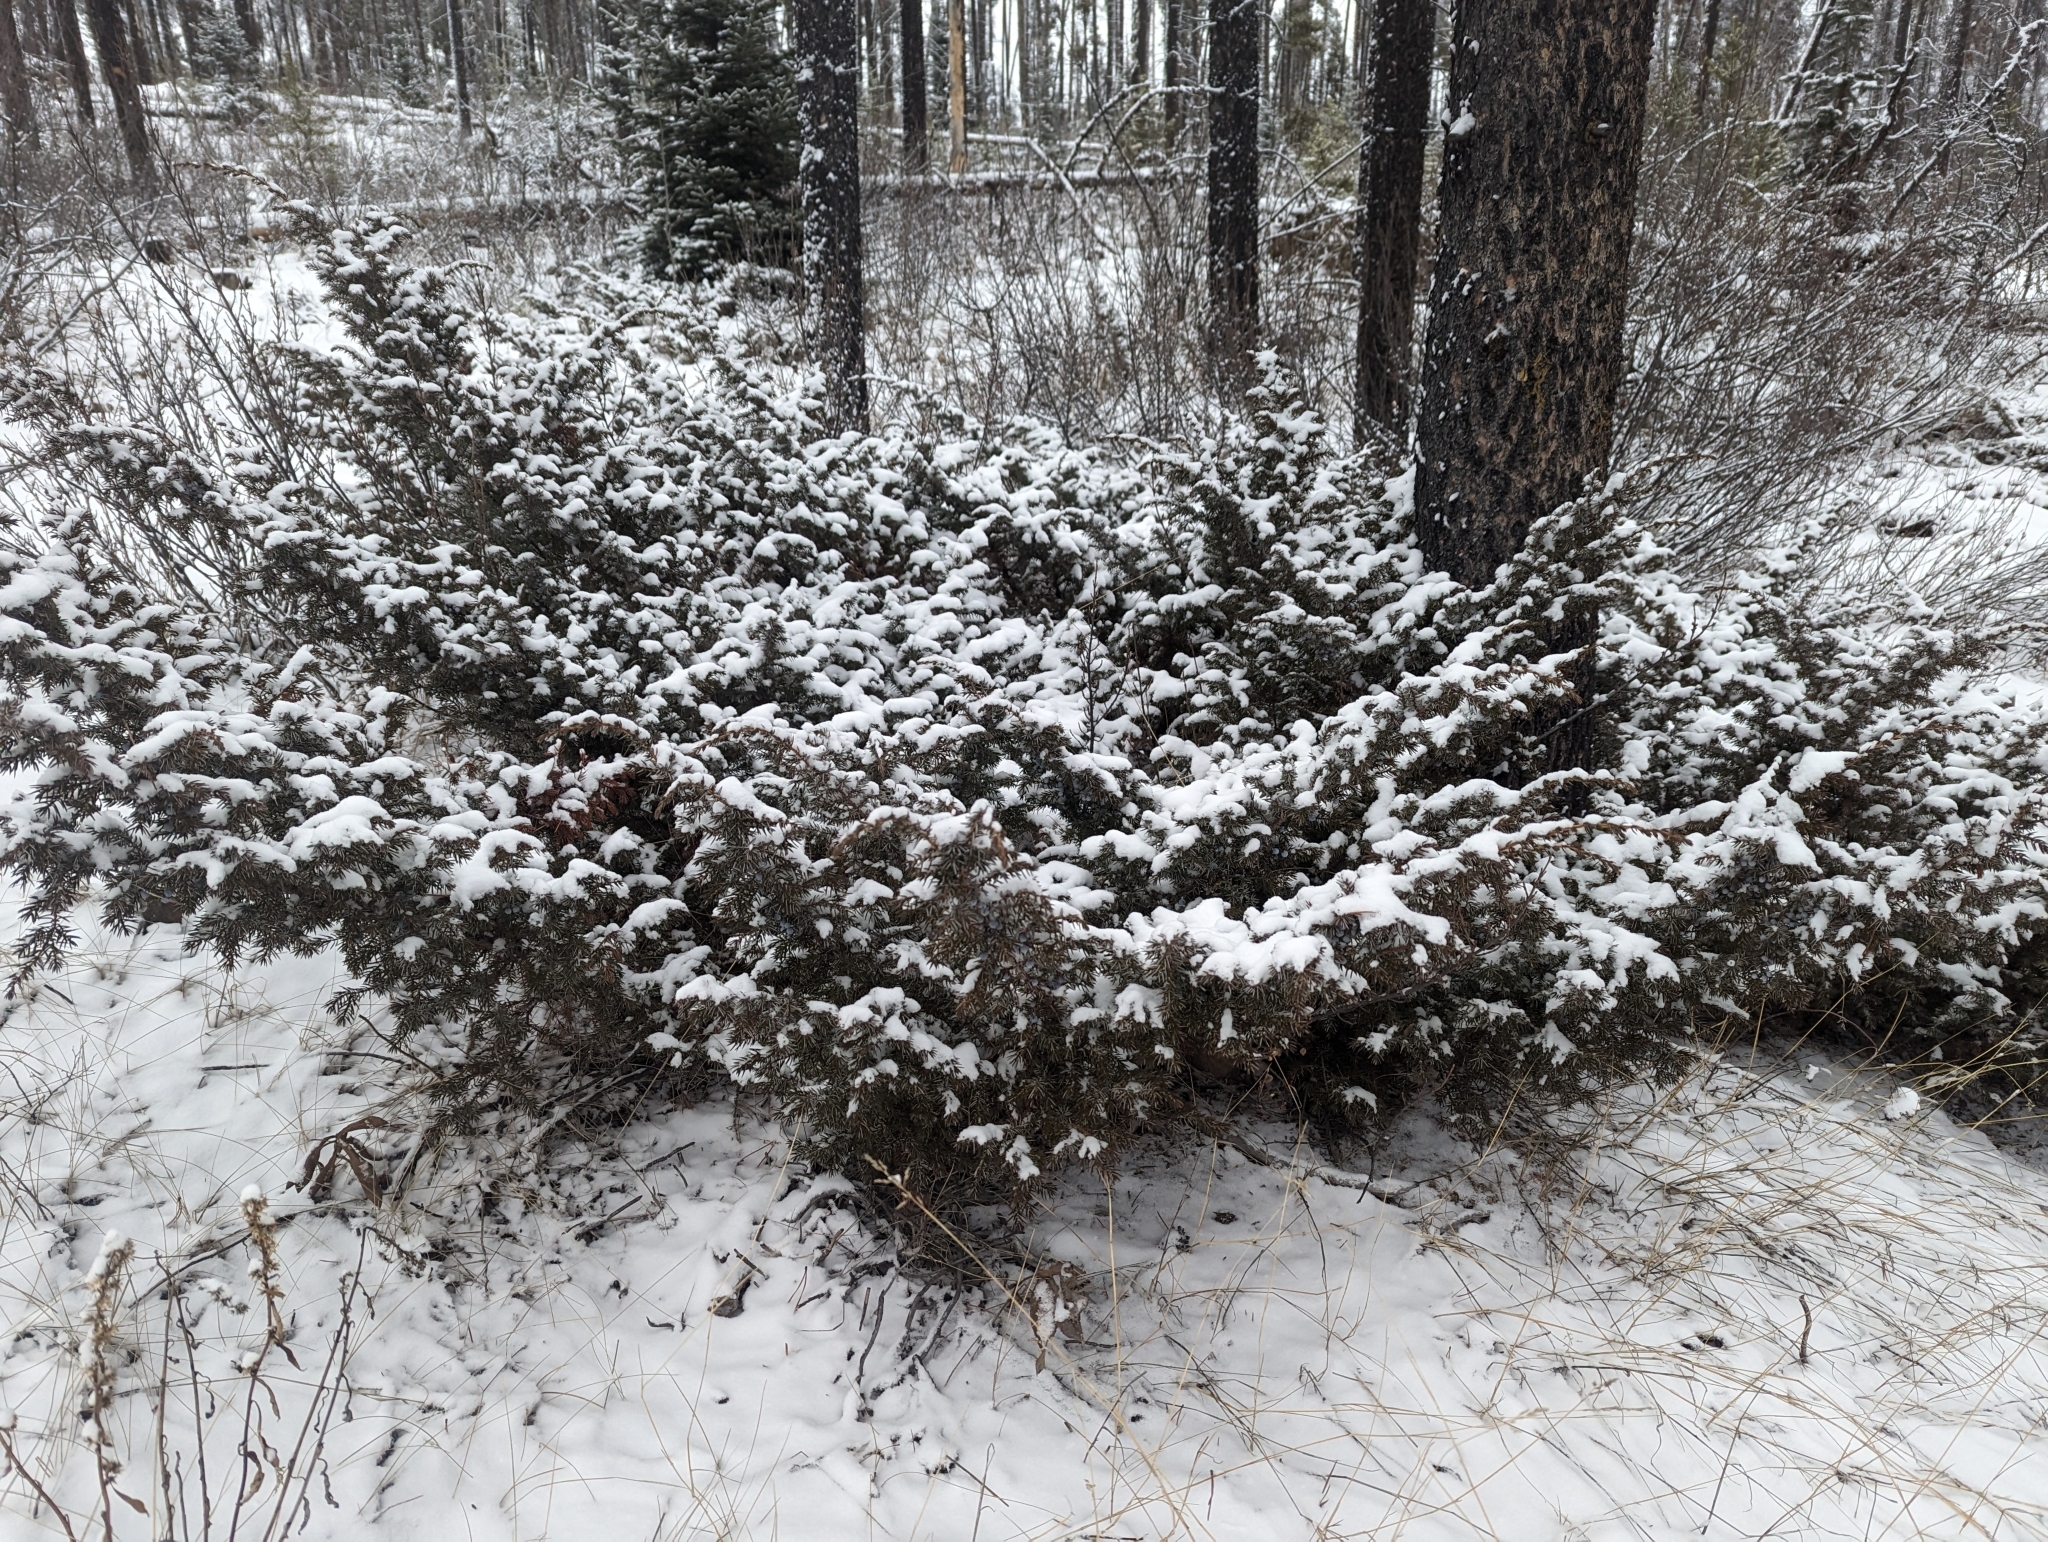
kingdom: Plantae
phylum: Tracheophyta
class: Pinopsida
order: Pinales
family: Cupressaceae
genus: Juniperus
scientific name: Juniperus communis
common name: Common juniper
